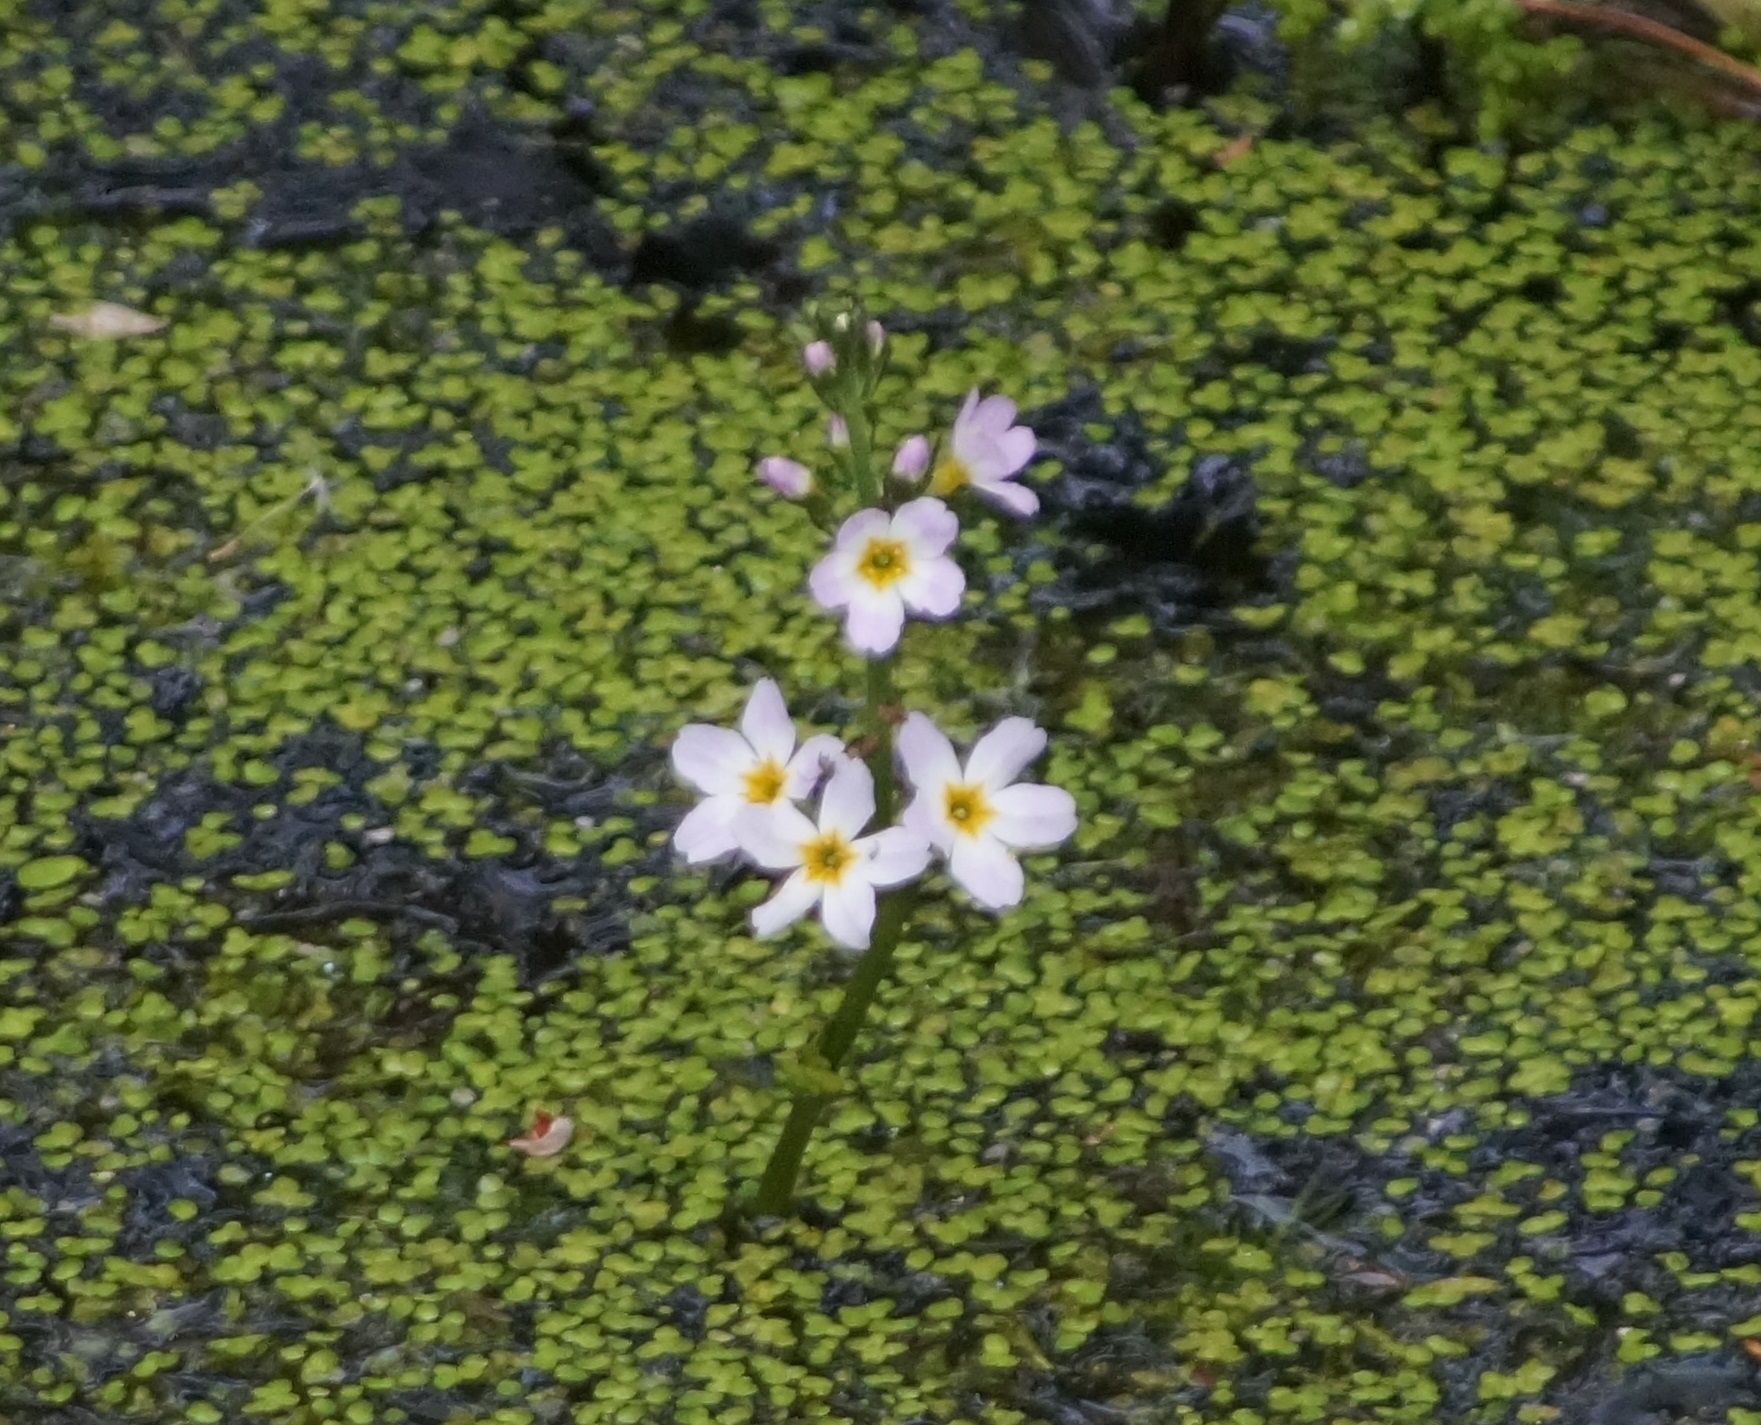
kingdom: Plantae
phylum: Tracheophyta
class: Magnoliopsida
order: Ericales
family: Primulaceae
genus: Hottonia
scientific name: Hottonia palustris
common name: Water-violet
